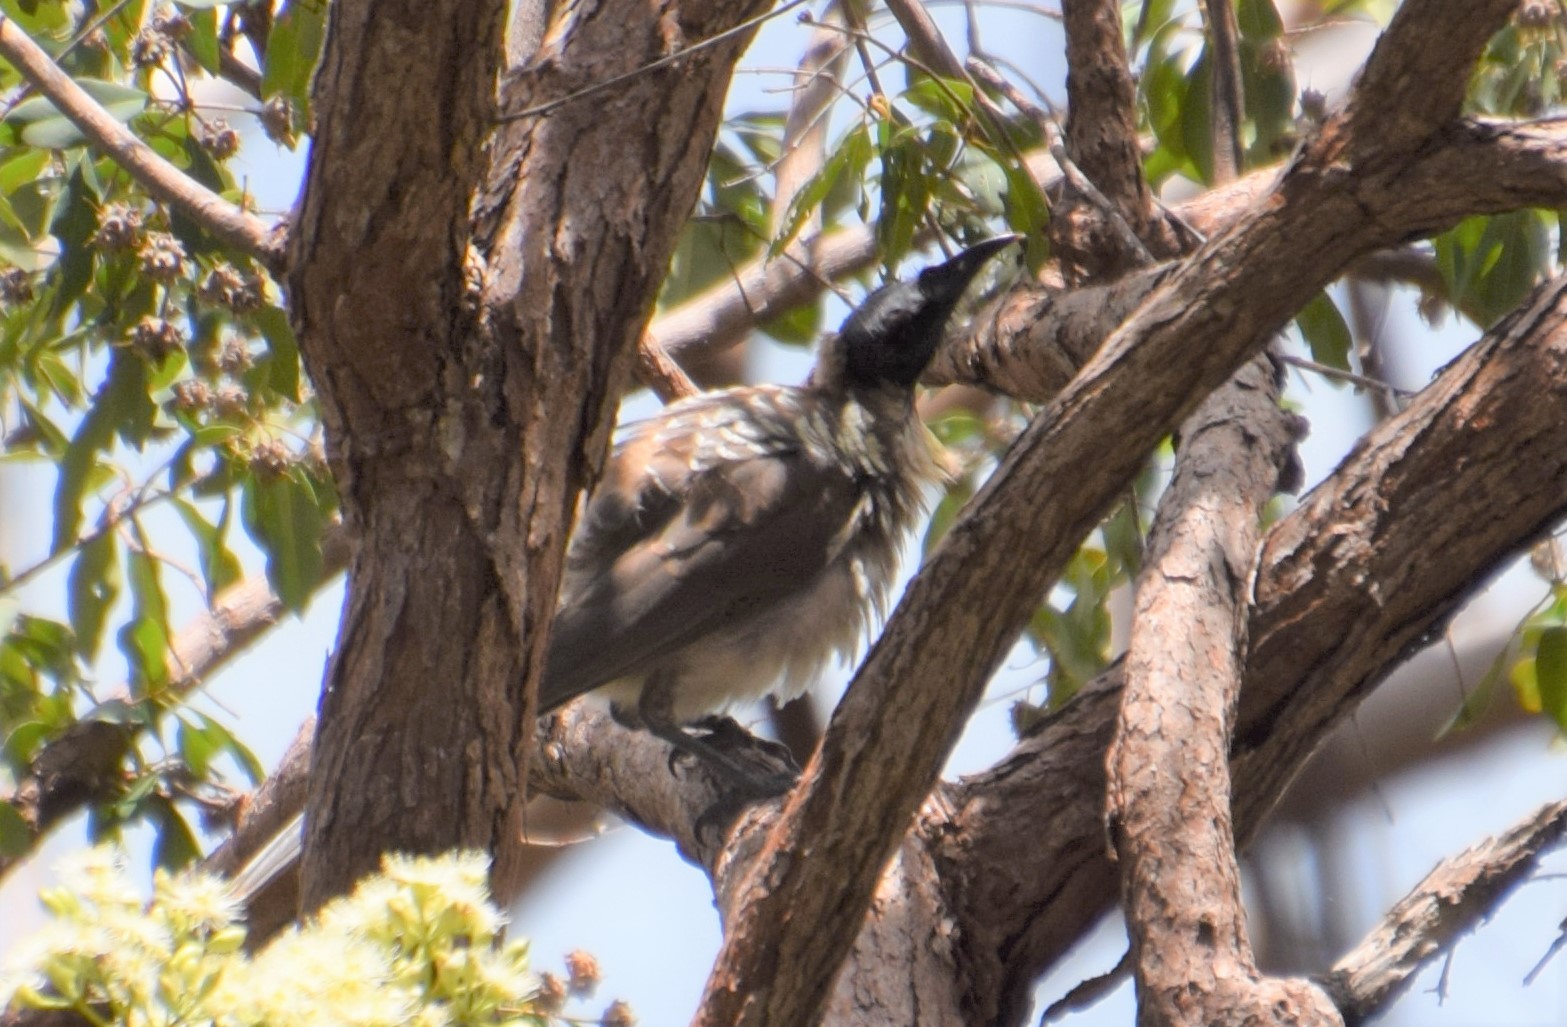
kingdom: Animalia
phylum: Chordata
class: Aves
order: Passeriformes
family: Meliphagidae
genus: Philemon
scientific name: Philemon corniculatus
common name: Noisy friarbird
